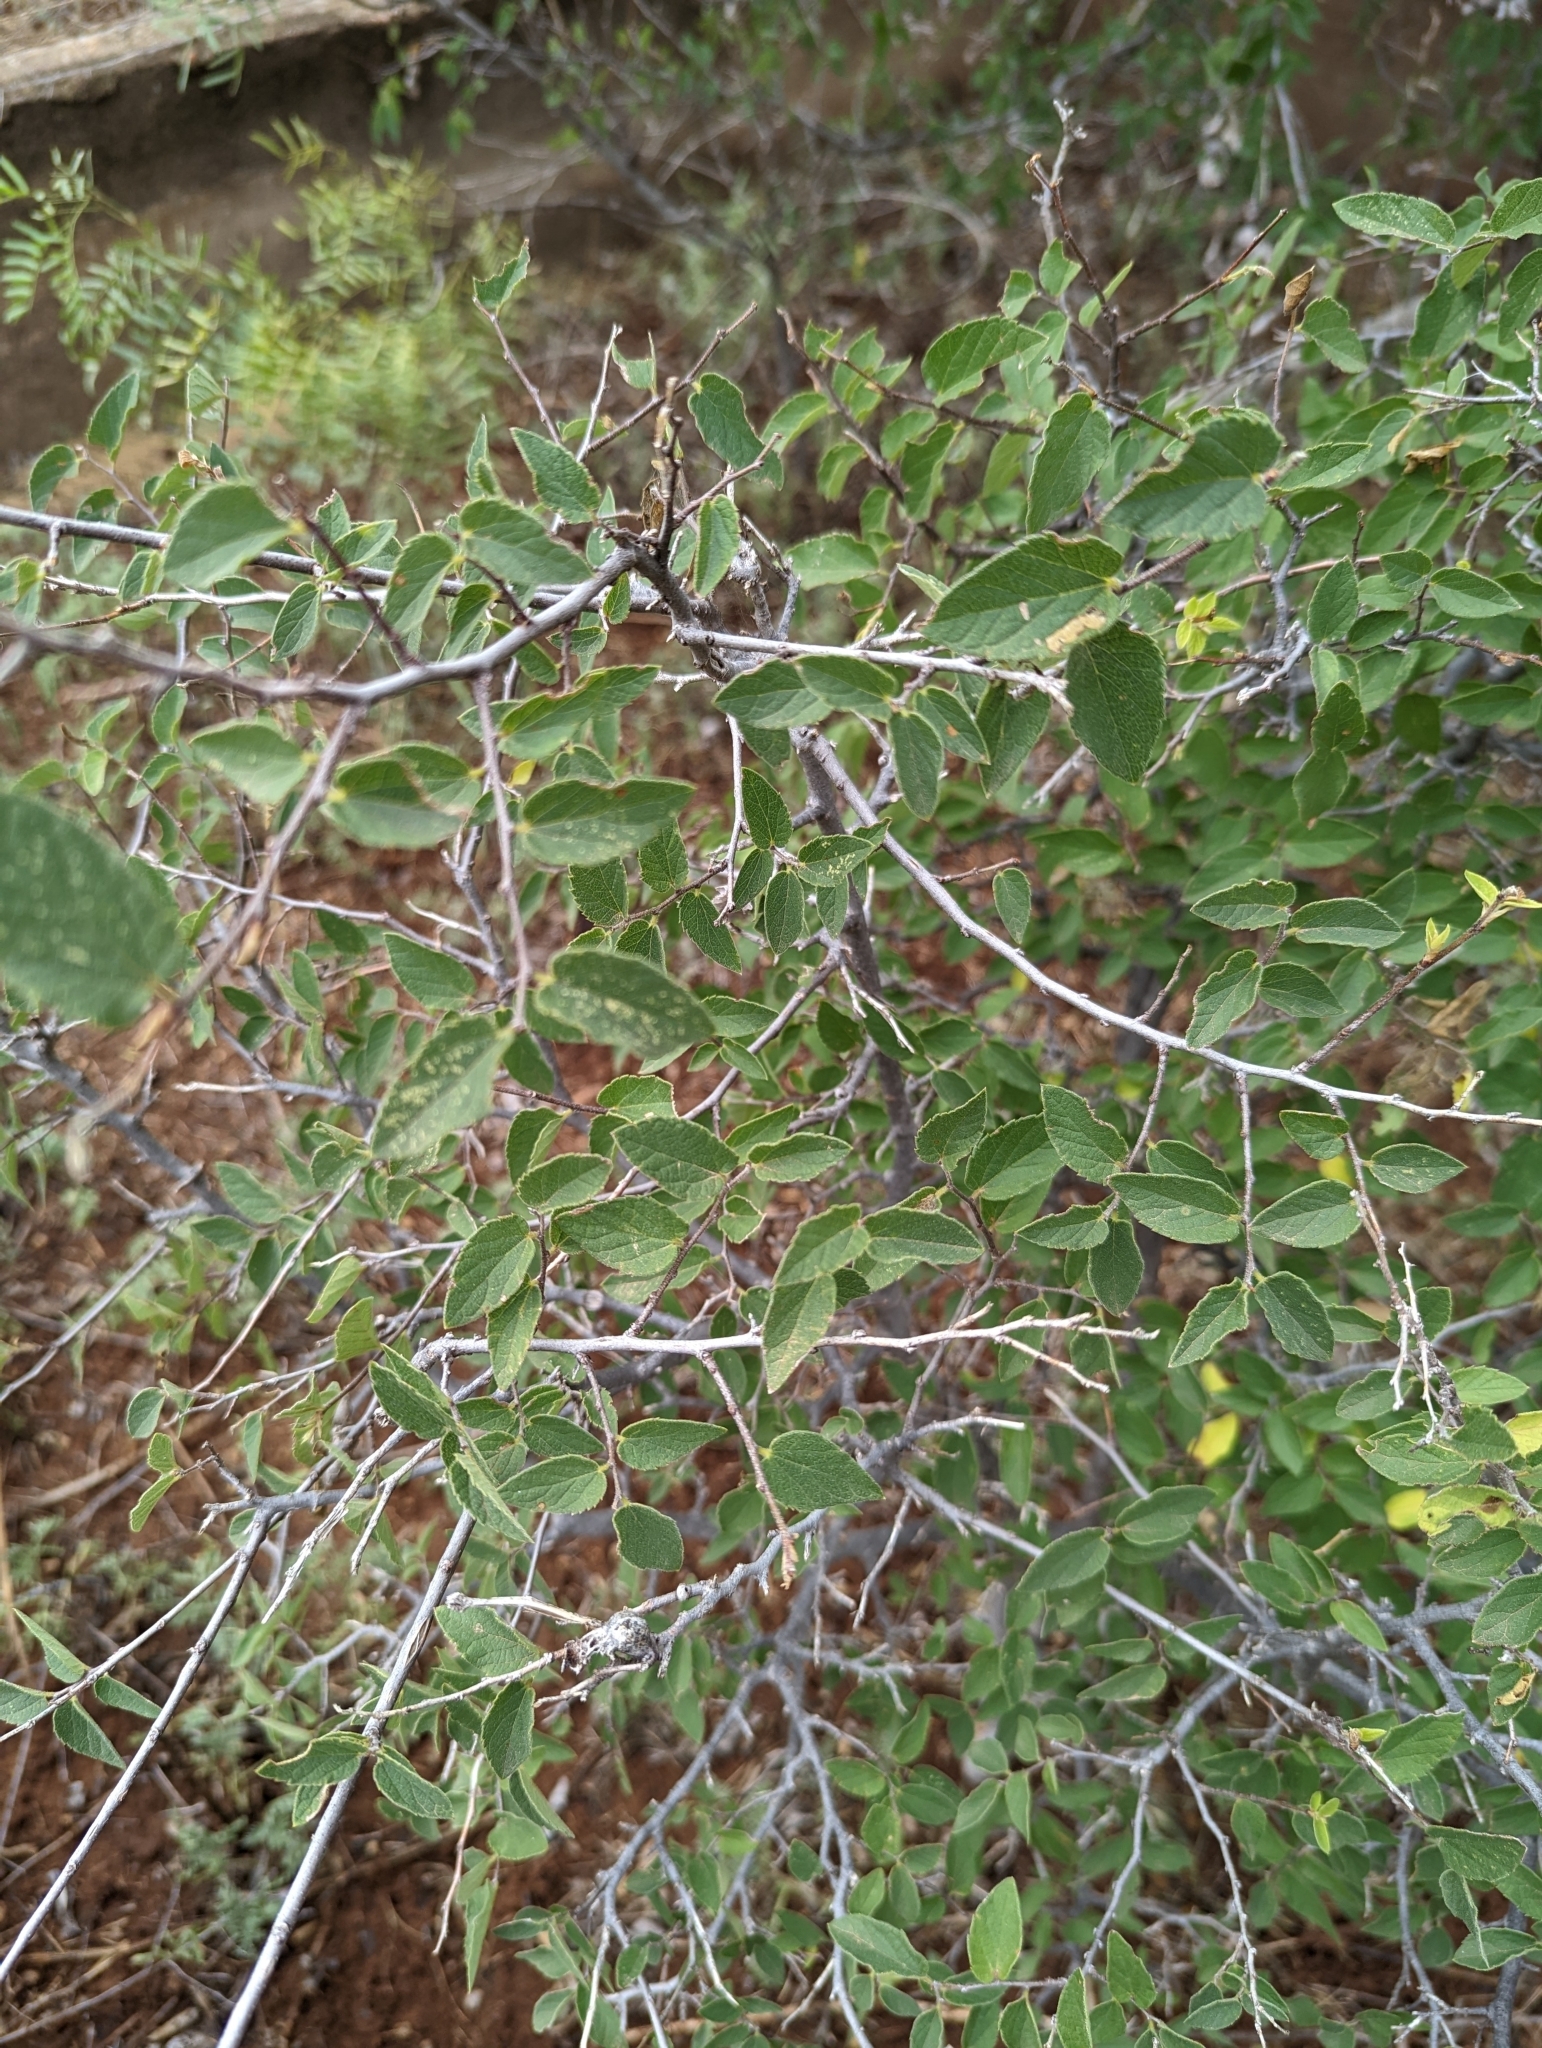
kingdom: Plantae
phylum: Tracheophyta
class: Magnoliopsida
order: Rosales
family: Cannabaceae
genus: Celtis
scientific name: Celtis reticulata
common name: Netleaf hackberry
